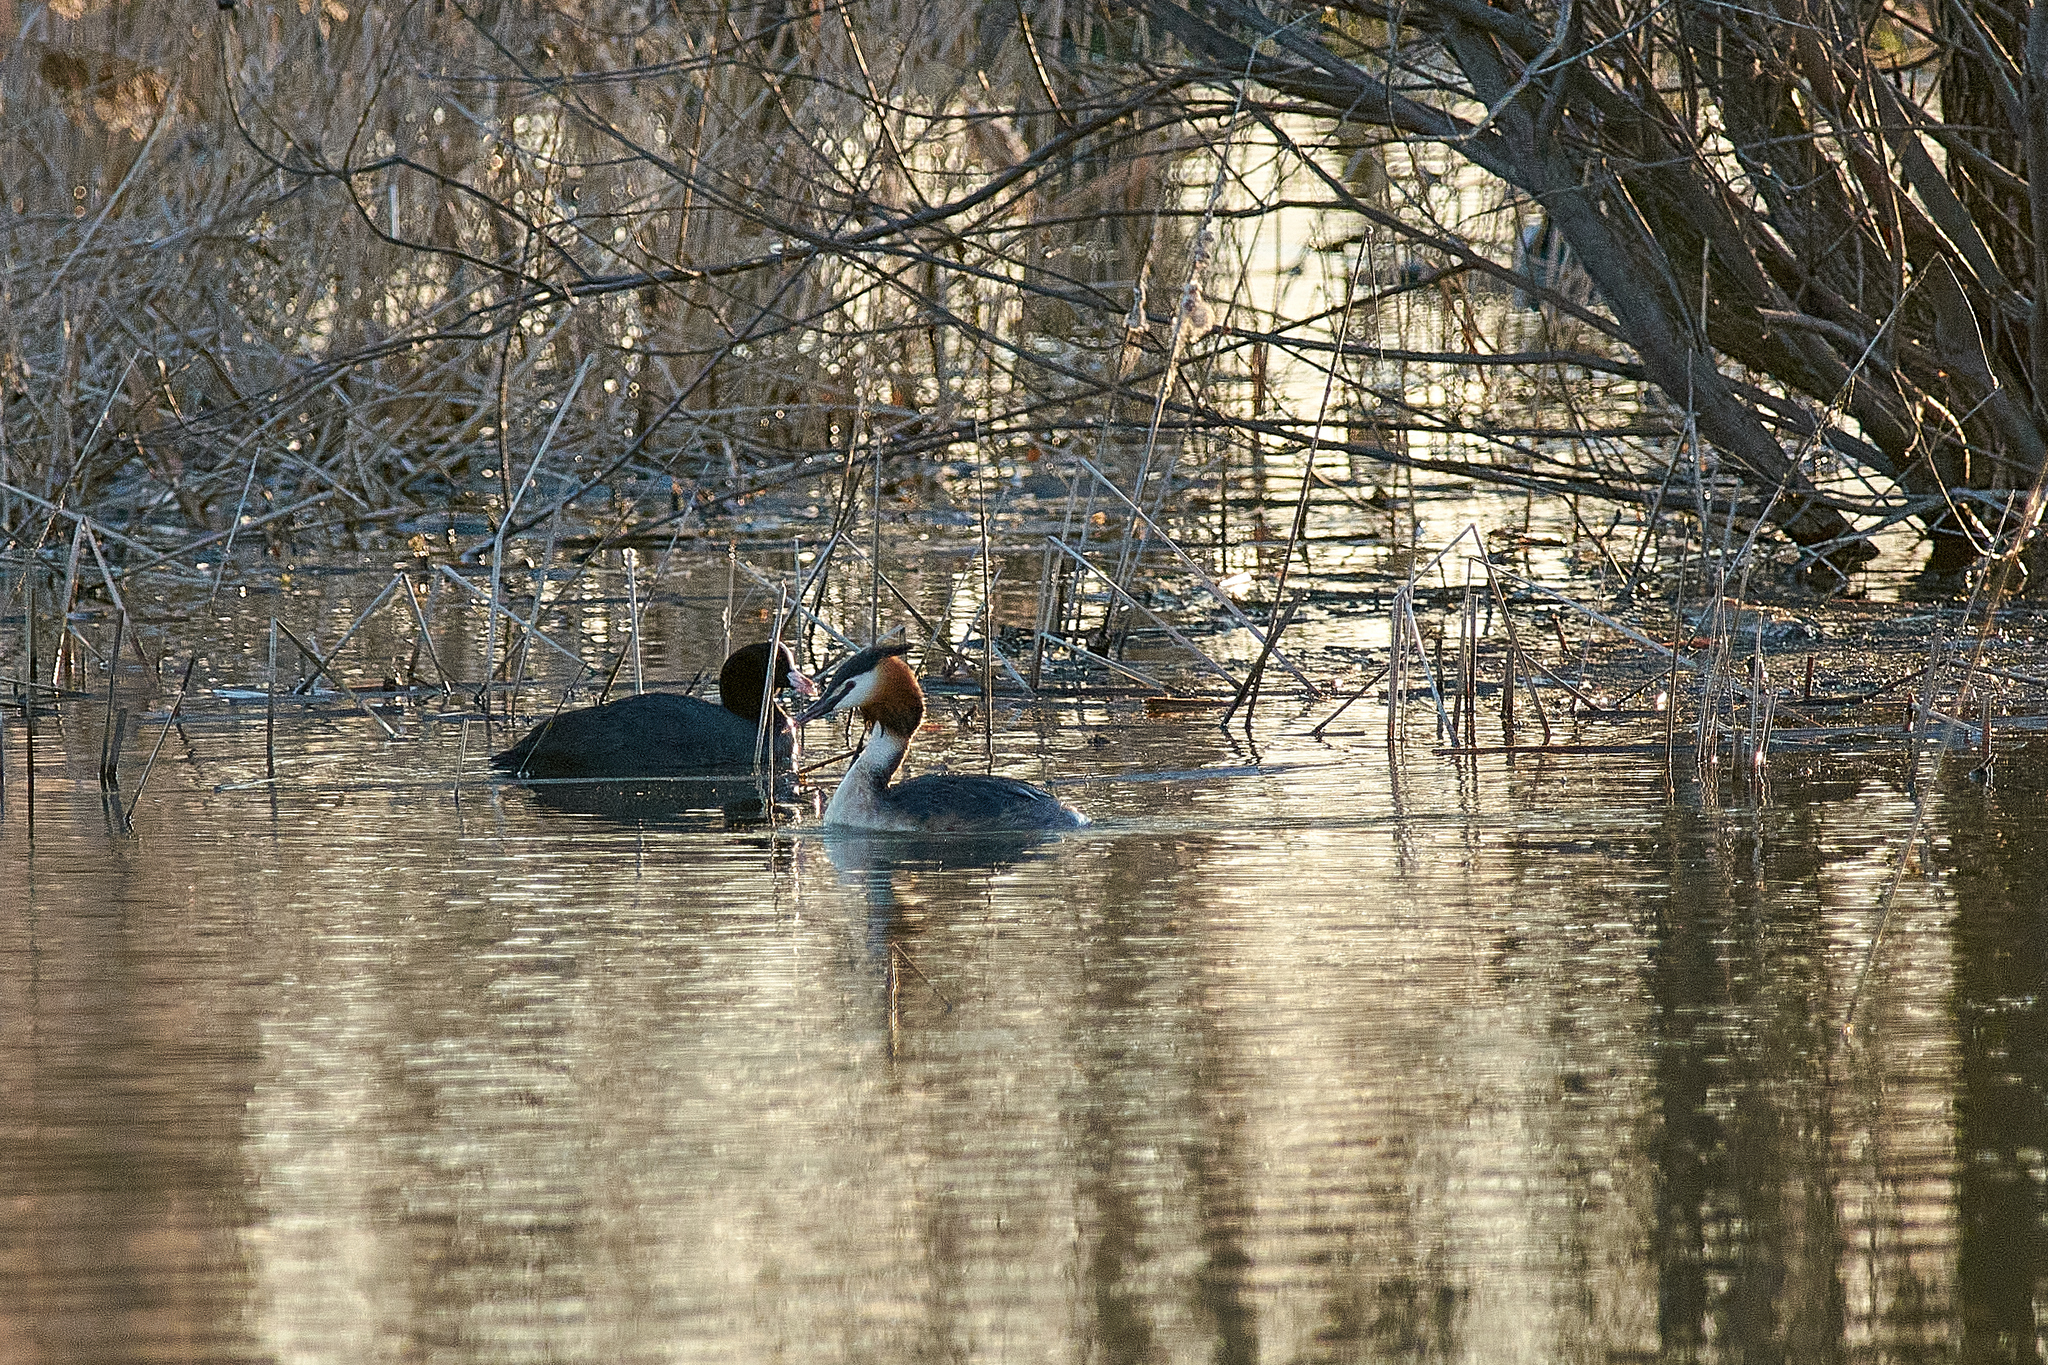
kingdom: Animalia
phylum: Chordata
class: Aves
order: Podicipediformes
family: Podicipedidae
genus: Podiceps
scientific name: Podiceps cristatus
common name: Great crested grebe
